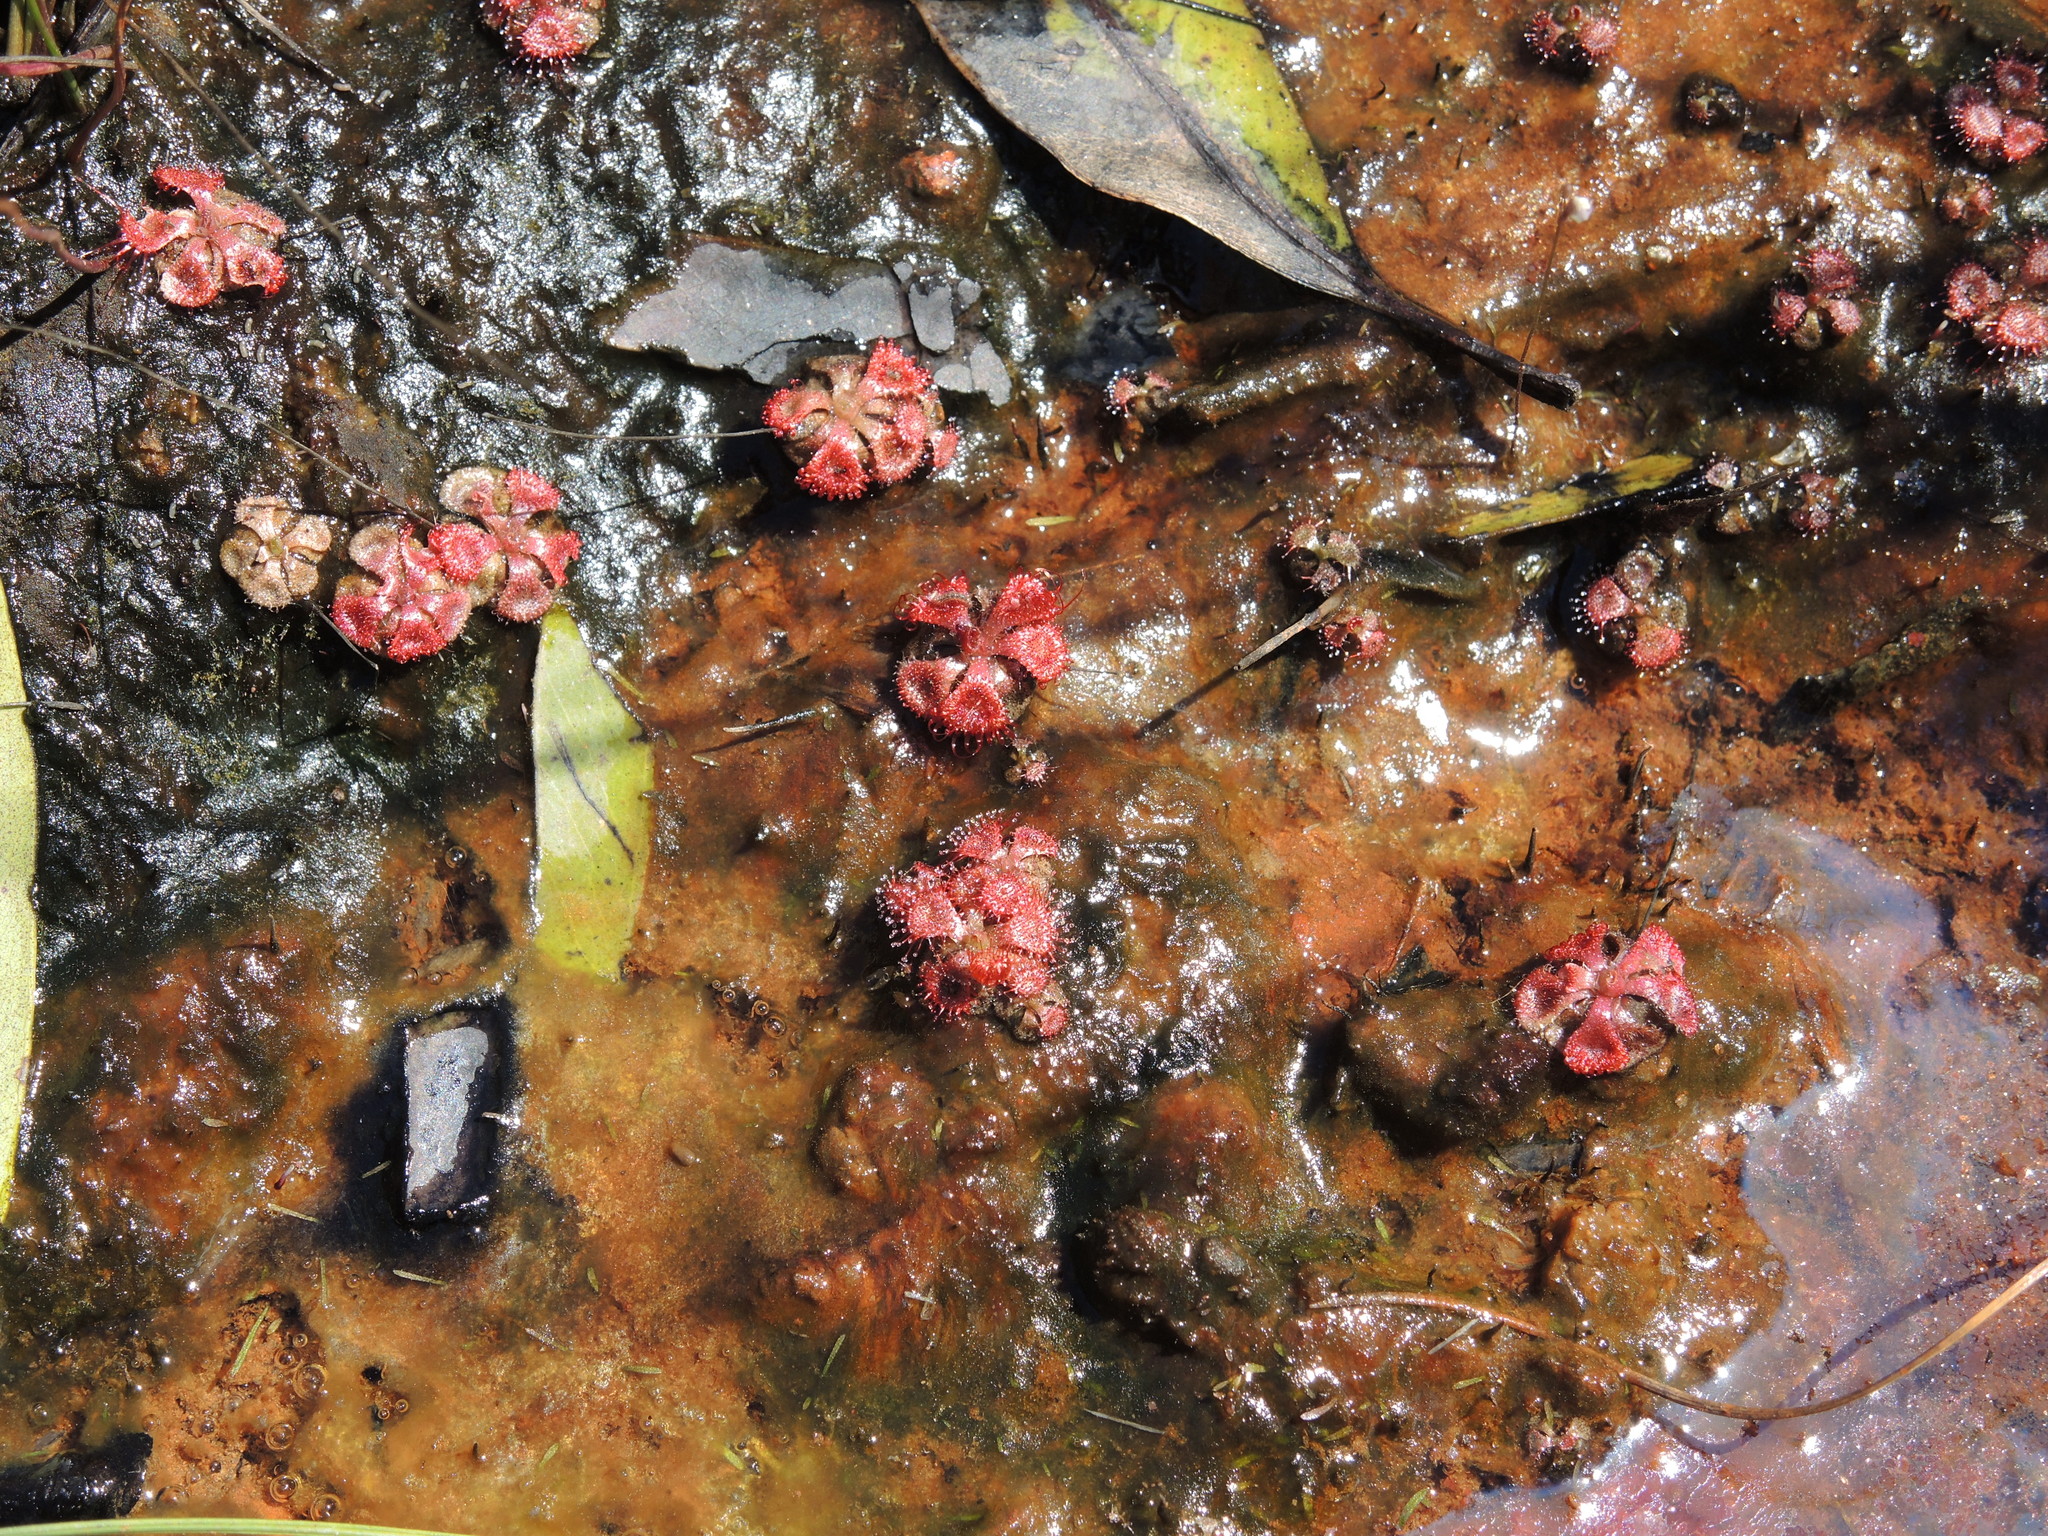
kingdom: Plantae
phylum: Tracheophyta
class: Magnoliopsida
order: Caryophyllales
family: Droseraceae
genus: Drosera
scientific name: Drosera spatulata
